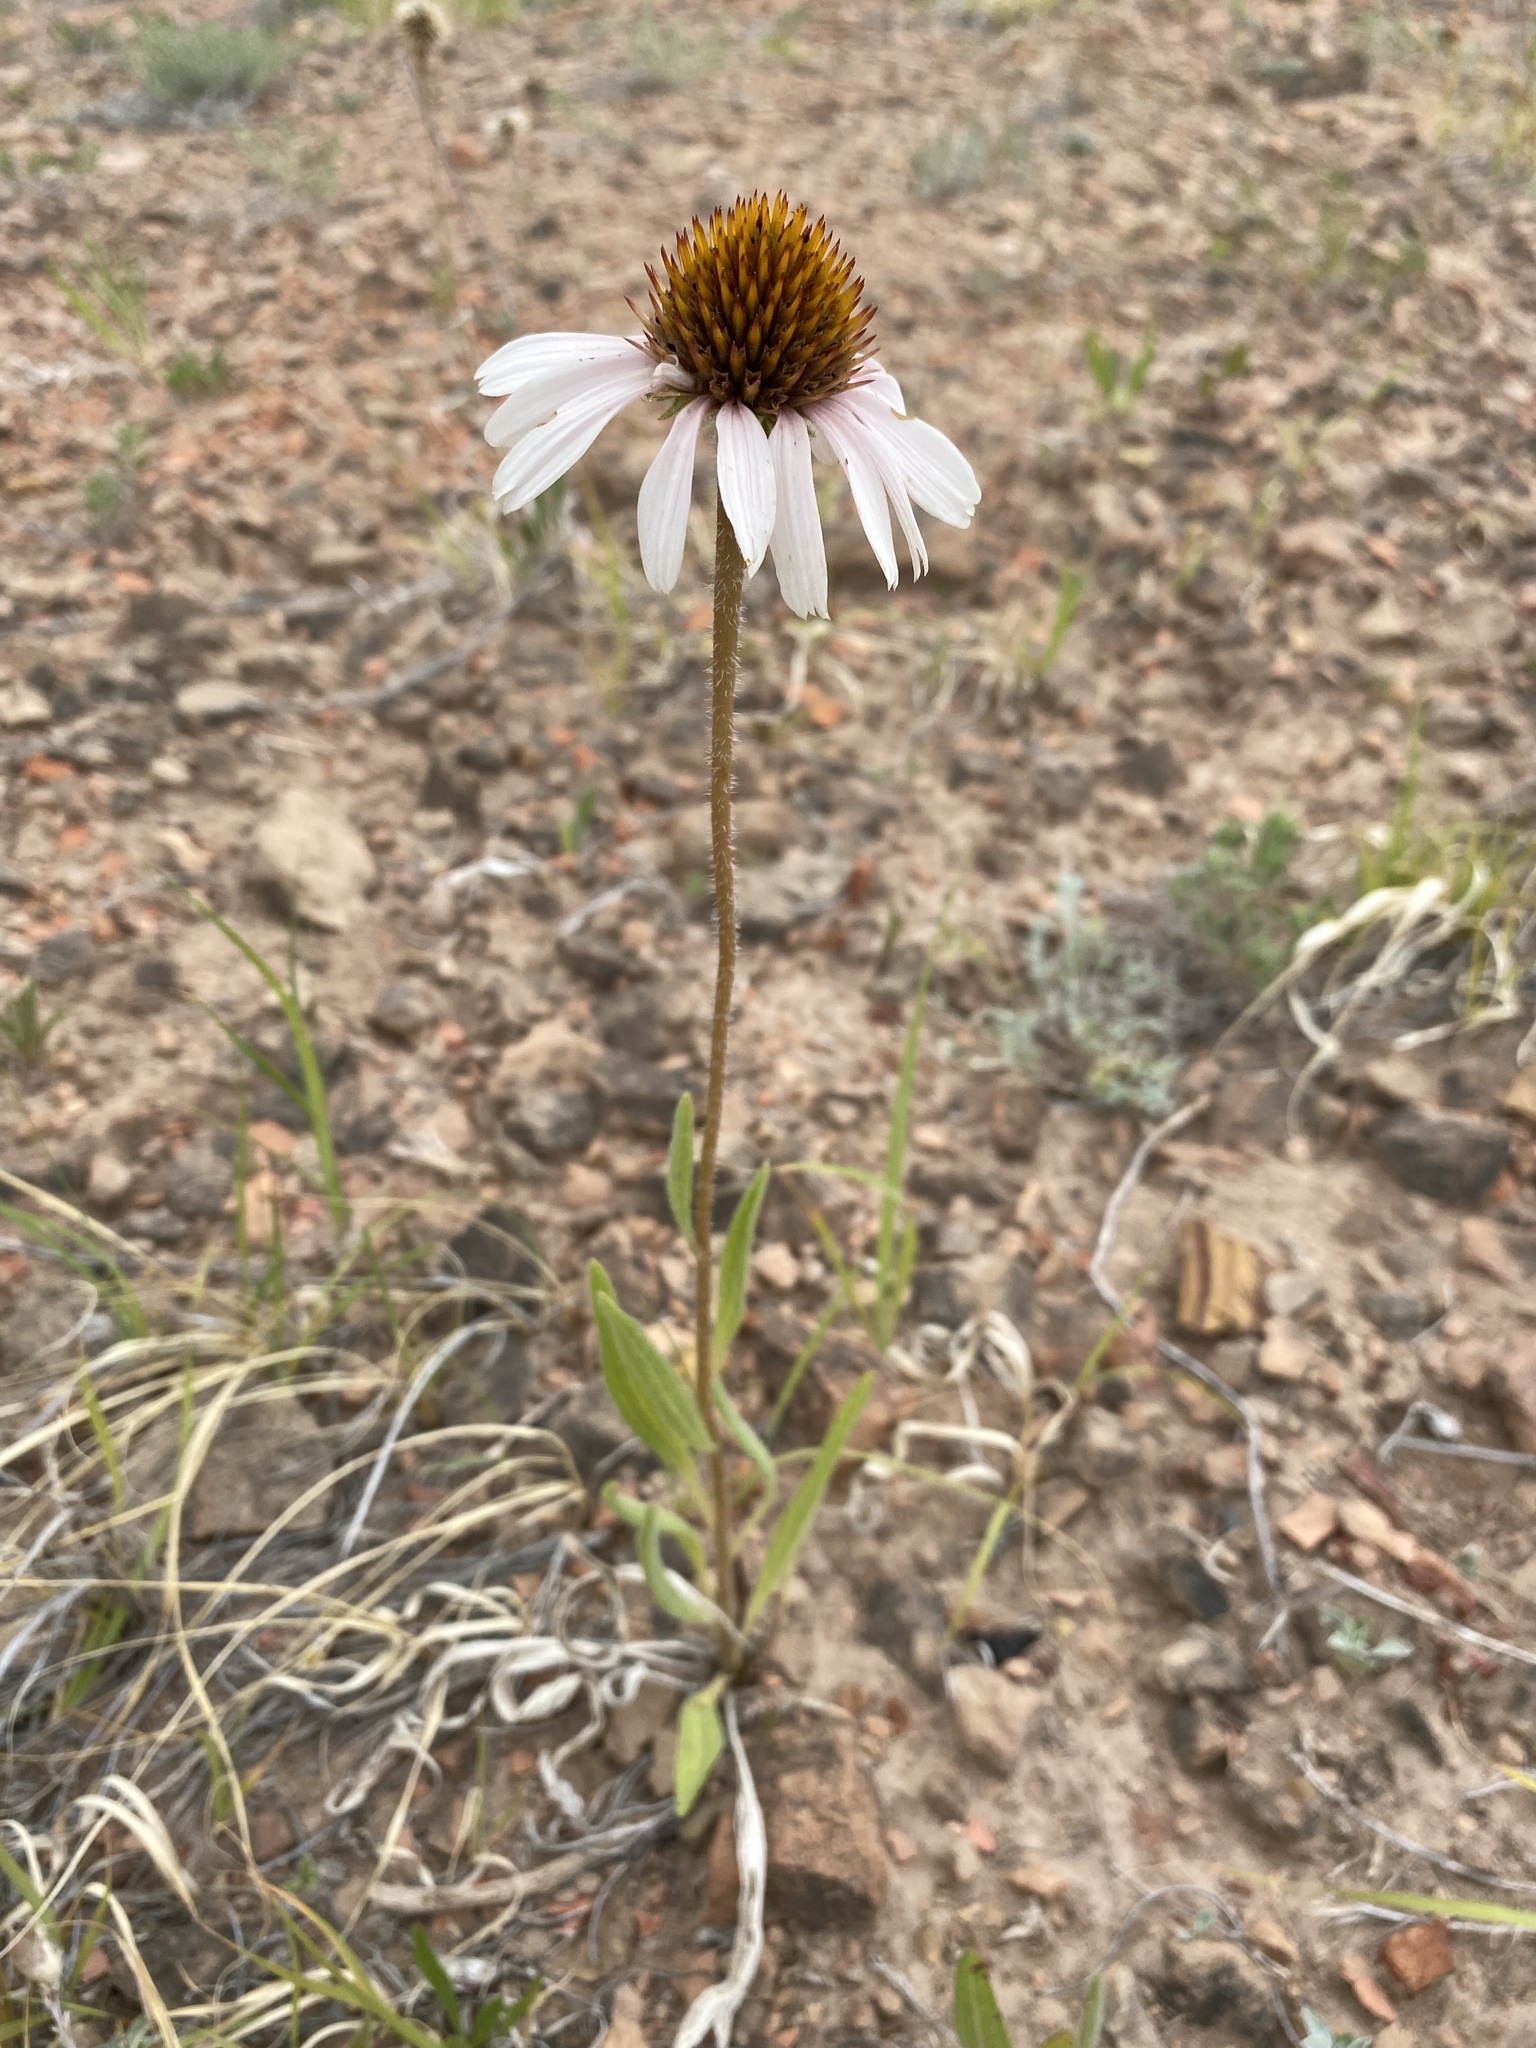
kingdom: Plantae
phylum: Tracheophyta
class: Magnoliopsida
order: Asterales
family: Asteraceae
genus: Echinacea
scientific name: Echinacea angustifolia
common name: Black-sampson echinacea
